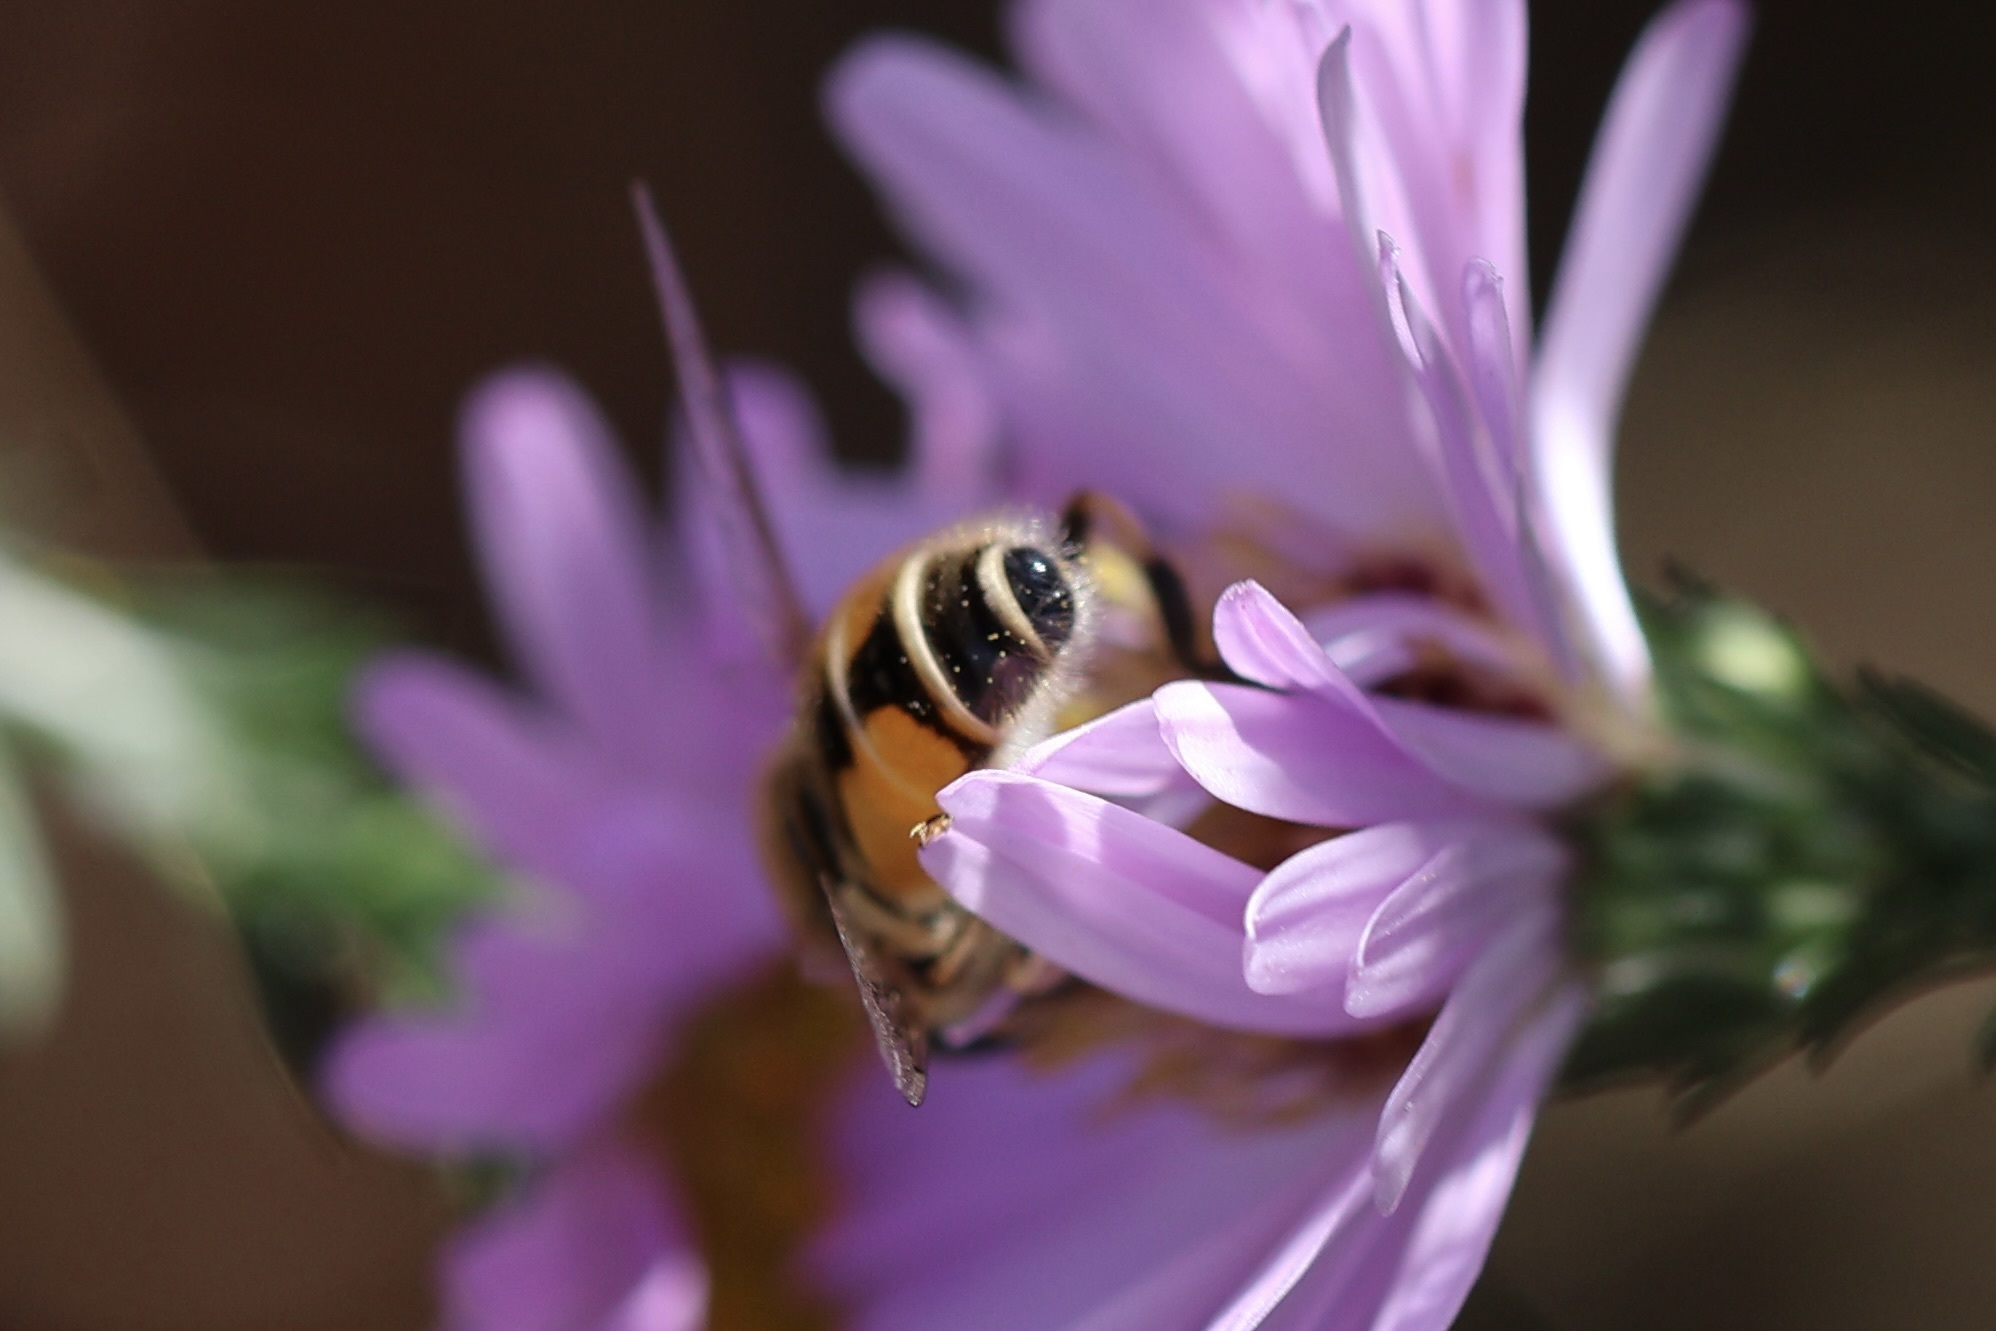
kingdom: Animalia
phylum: Arthropoda
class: Insecta
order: Diptera
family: Syrphidae
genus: Eristalis
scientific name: Eristalis arbustorum
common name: Hover fly
